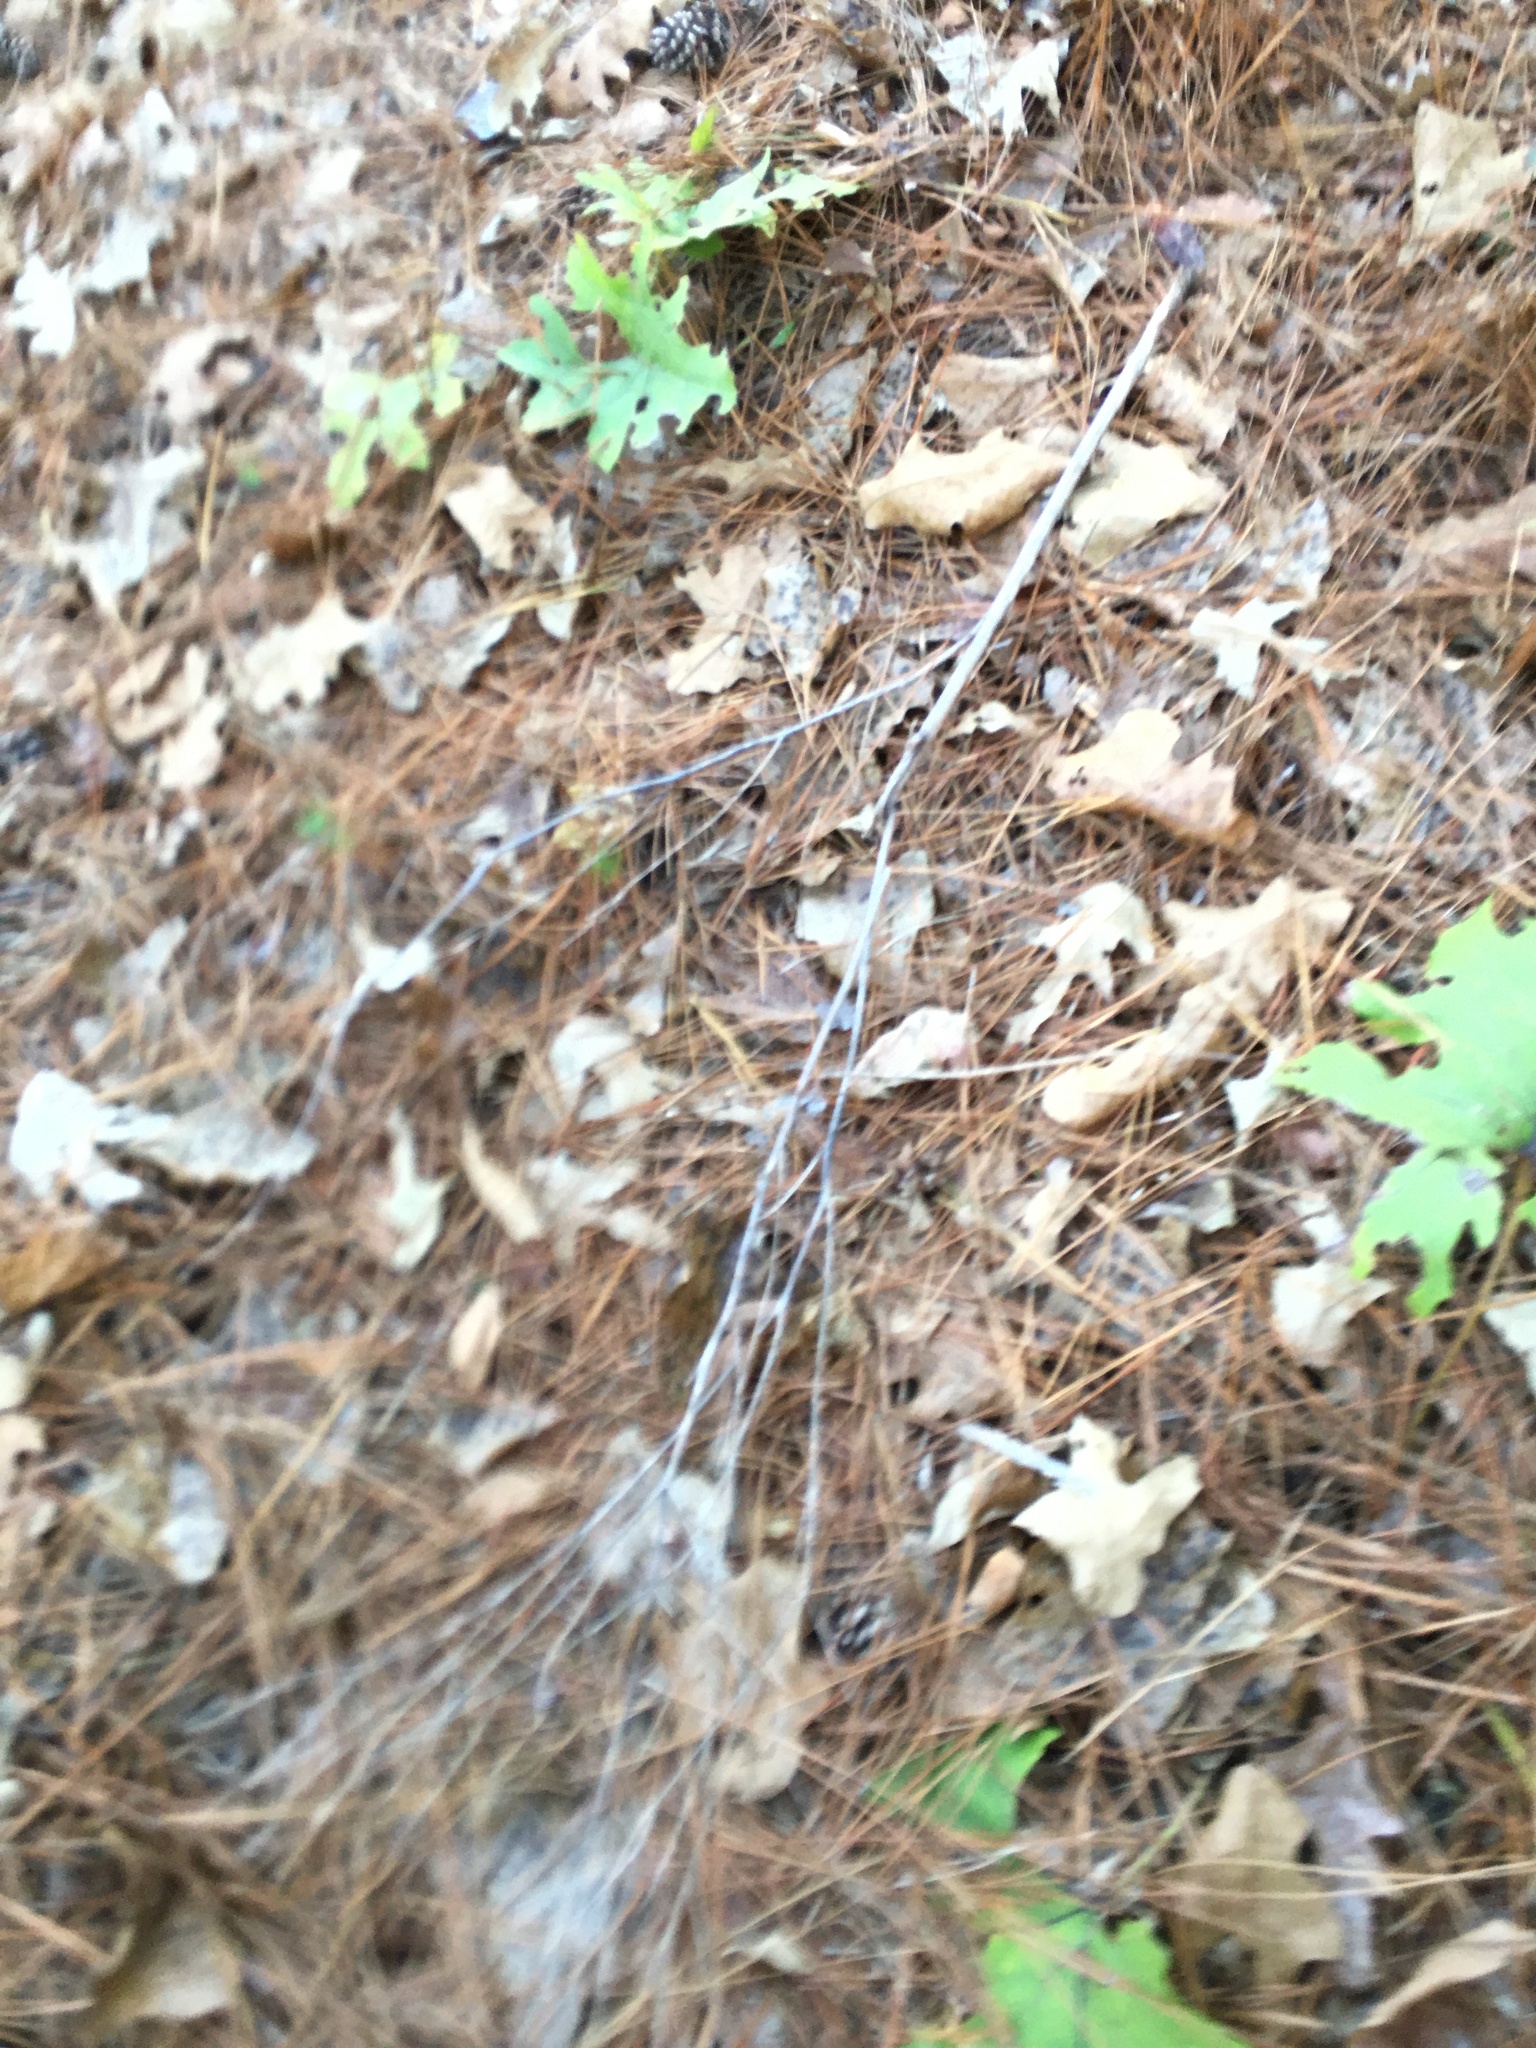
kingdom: Plantae
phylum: Tracheophyta
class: Magnoliopsida
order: Asterales
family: Asteraceae
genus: Silphium
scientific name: Silphium compositum
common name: Lesser basal-leaf rosinweed
